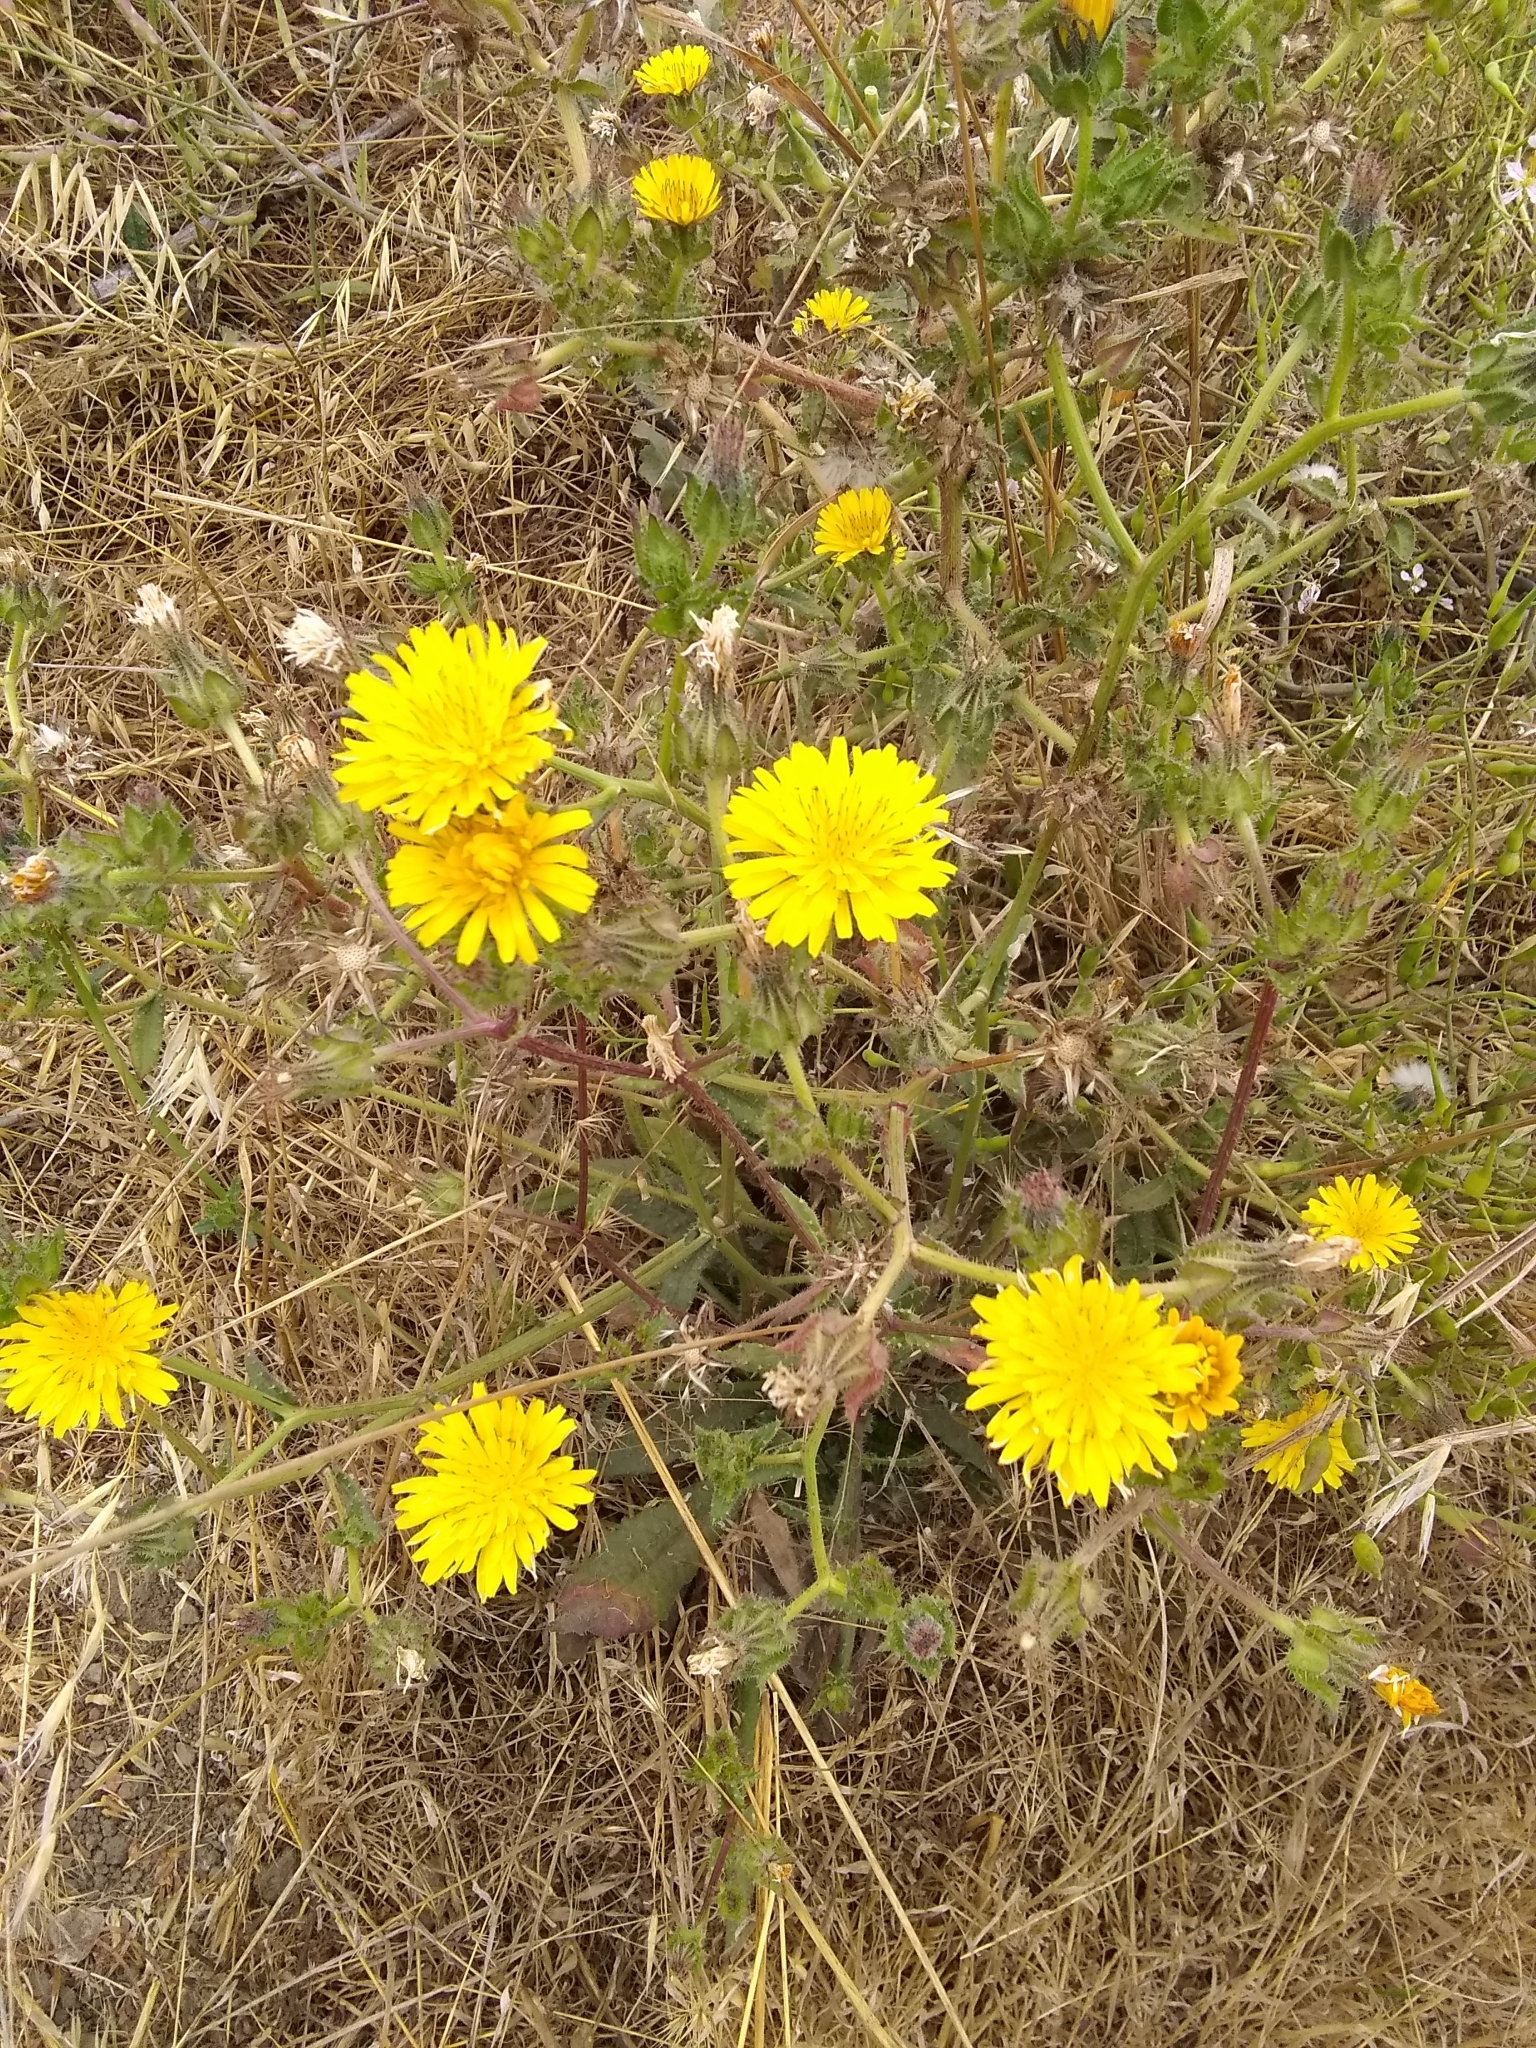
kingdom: Plantae
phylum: Tracheophyta
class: Magnoliopsida
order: Asterales
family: Asteraceae
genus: Helminthotheca
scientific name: Helminthotheca echioides
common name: Ox-tongue
